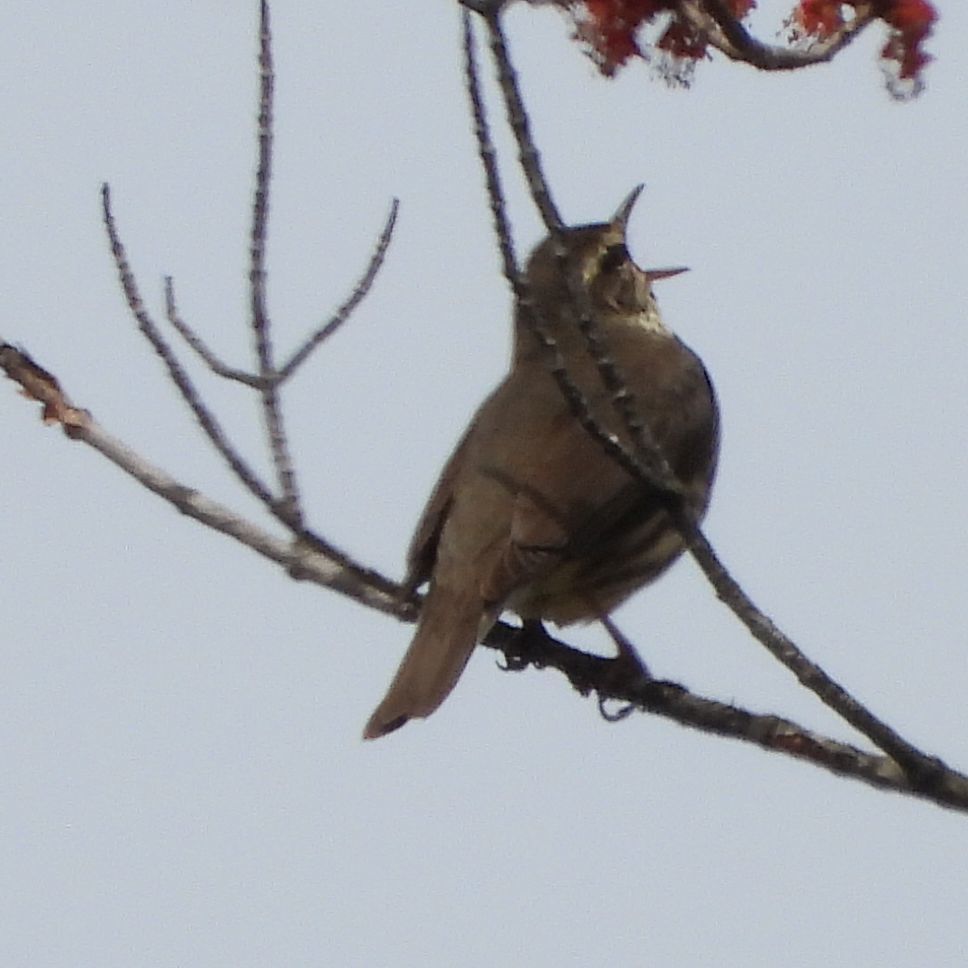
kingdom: Animalia
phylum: Chordata
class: Aves
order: Passeriformes
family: Parulidae
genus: Parkesia
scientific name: Parkesia noveboracensis
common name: Northern waterthrush
